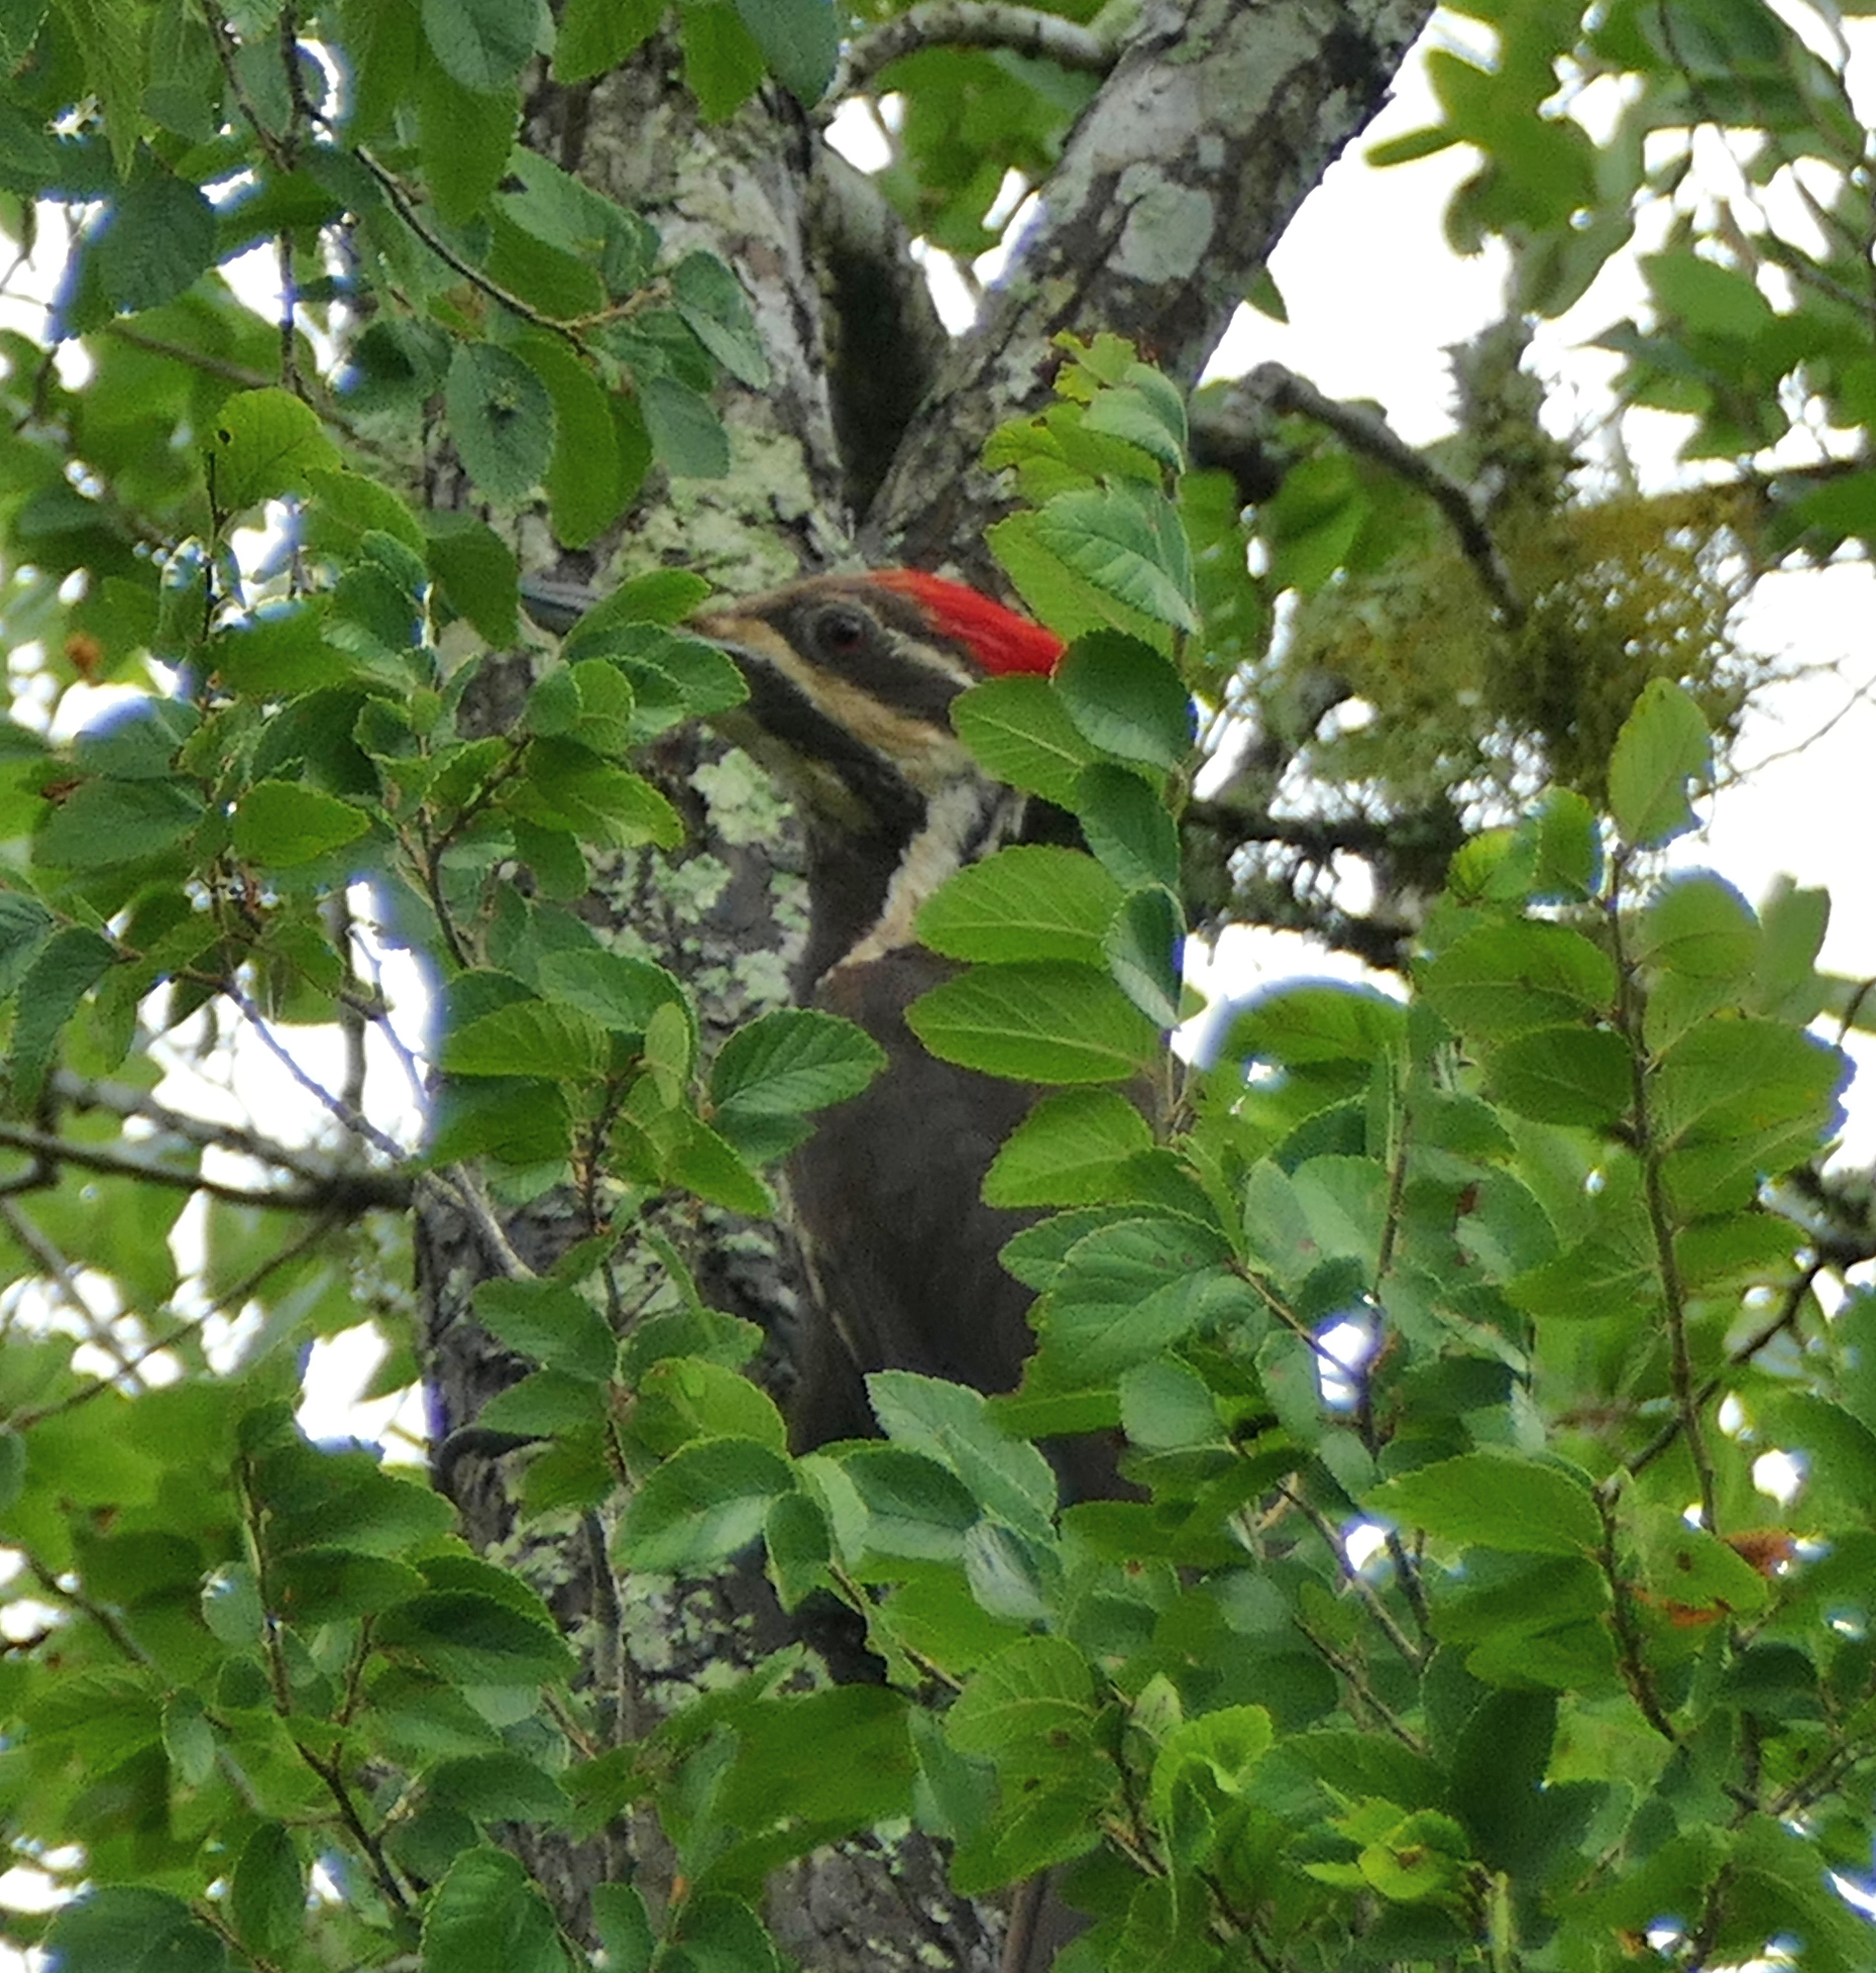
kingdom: Animalia
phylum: Chordata
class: Aves
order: Piciformes
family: Picidae
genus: Dryocopus
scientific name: Dryocopus pileatus
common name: Pileated woodpecker
